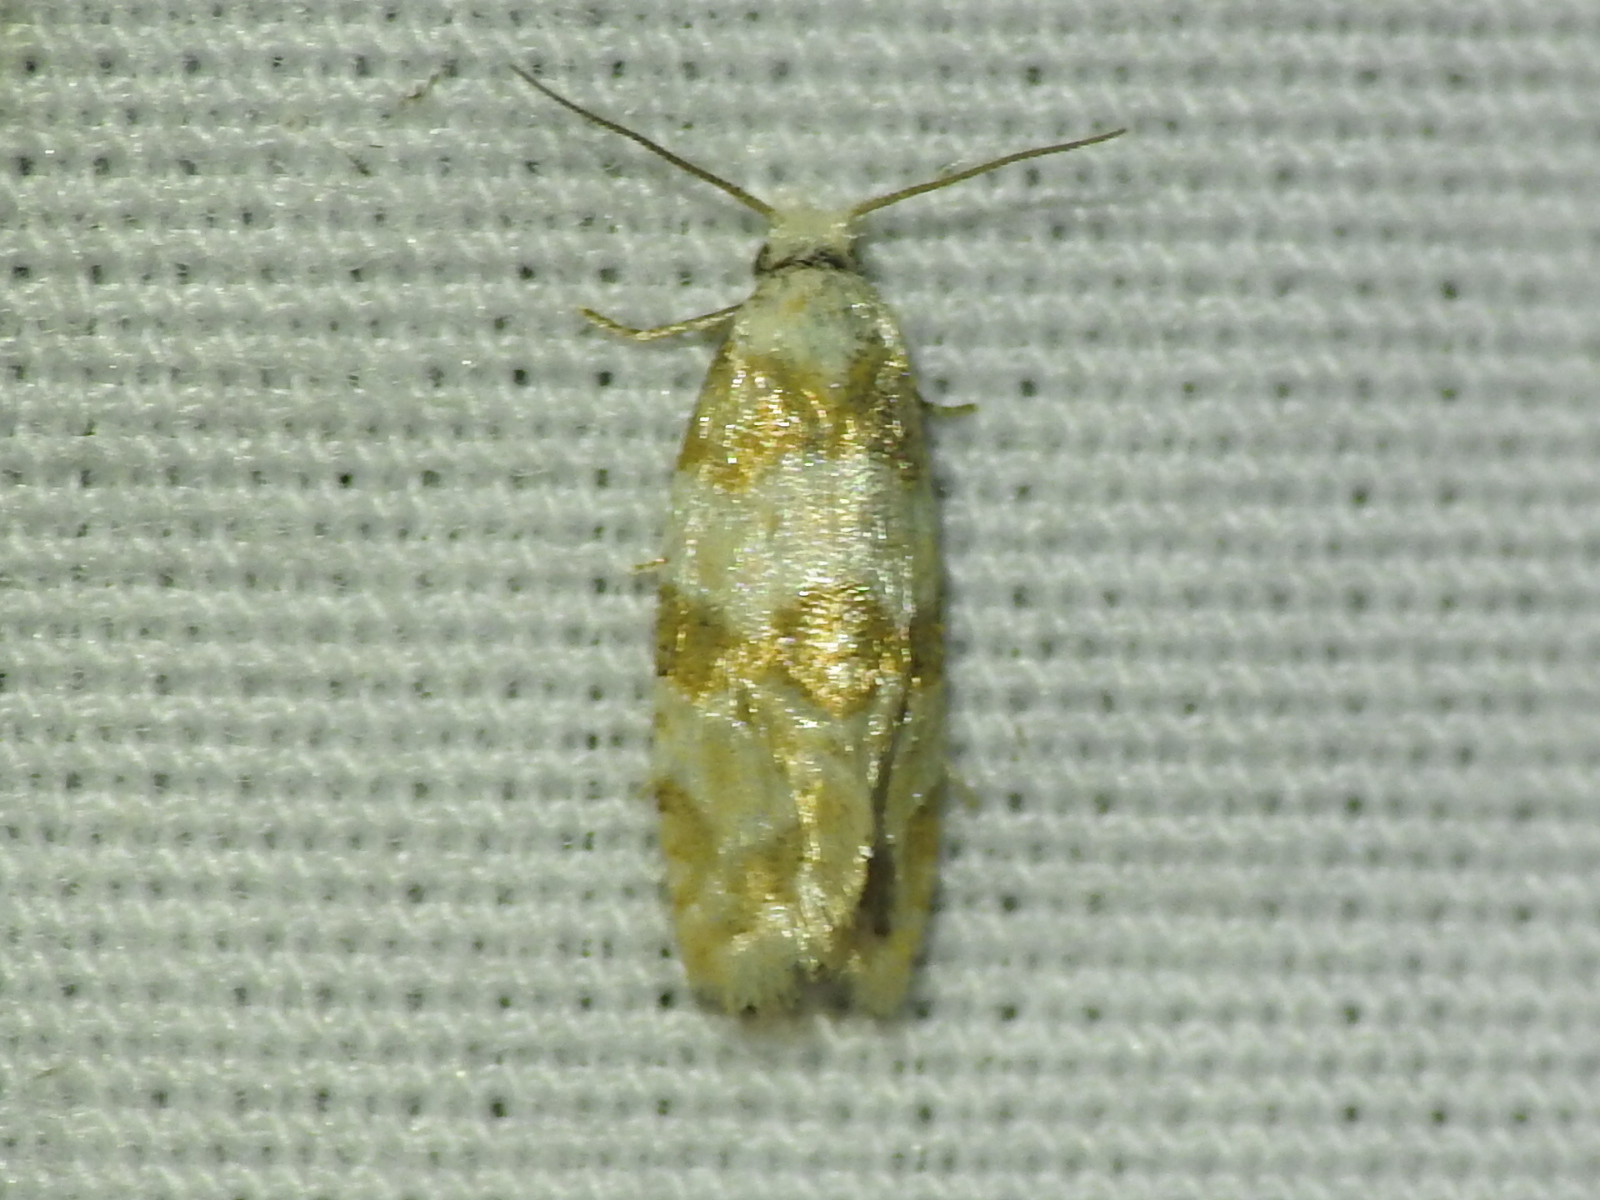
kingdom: Animalia
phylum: Arthropoda
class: Insecta
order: Lepidoptera
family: Tortricidae
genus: Aethes
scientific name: Aethes argentilimitana
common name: Silver-bordered aethes
